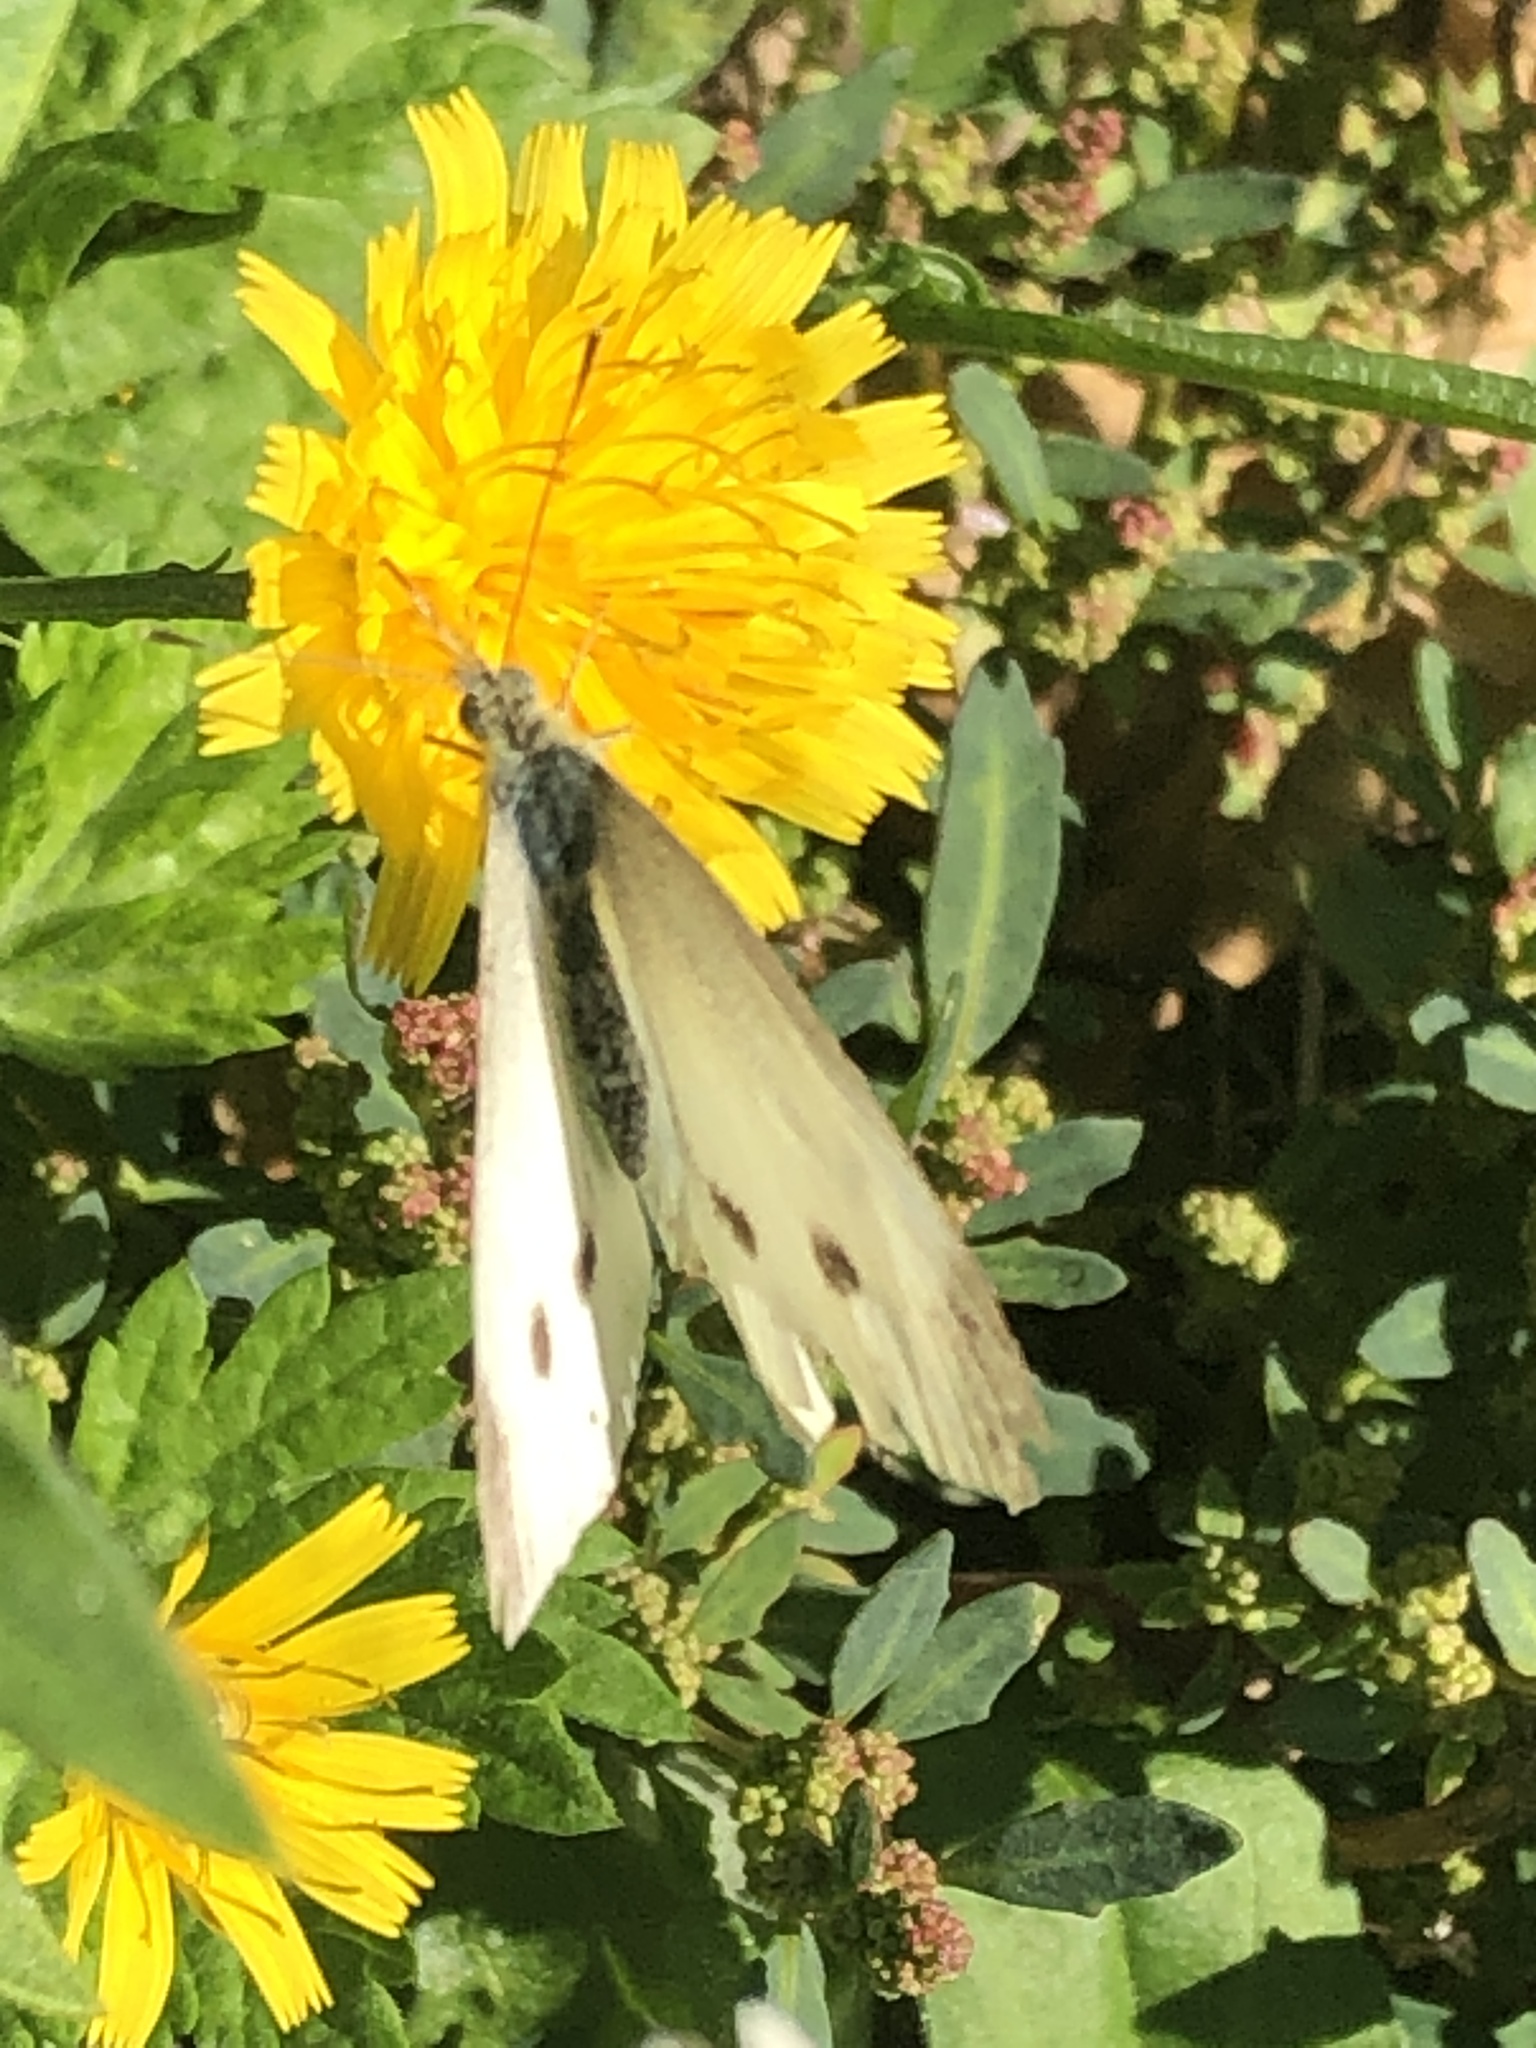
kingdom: Animalia
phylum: Arthropoda
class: Insecta
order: Lepidoptera
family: Pieridae
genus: Pieris
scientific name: Pieris rapae
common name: Small white
